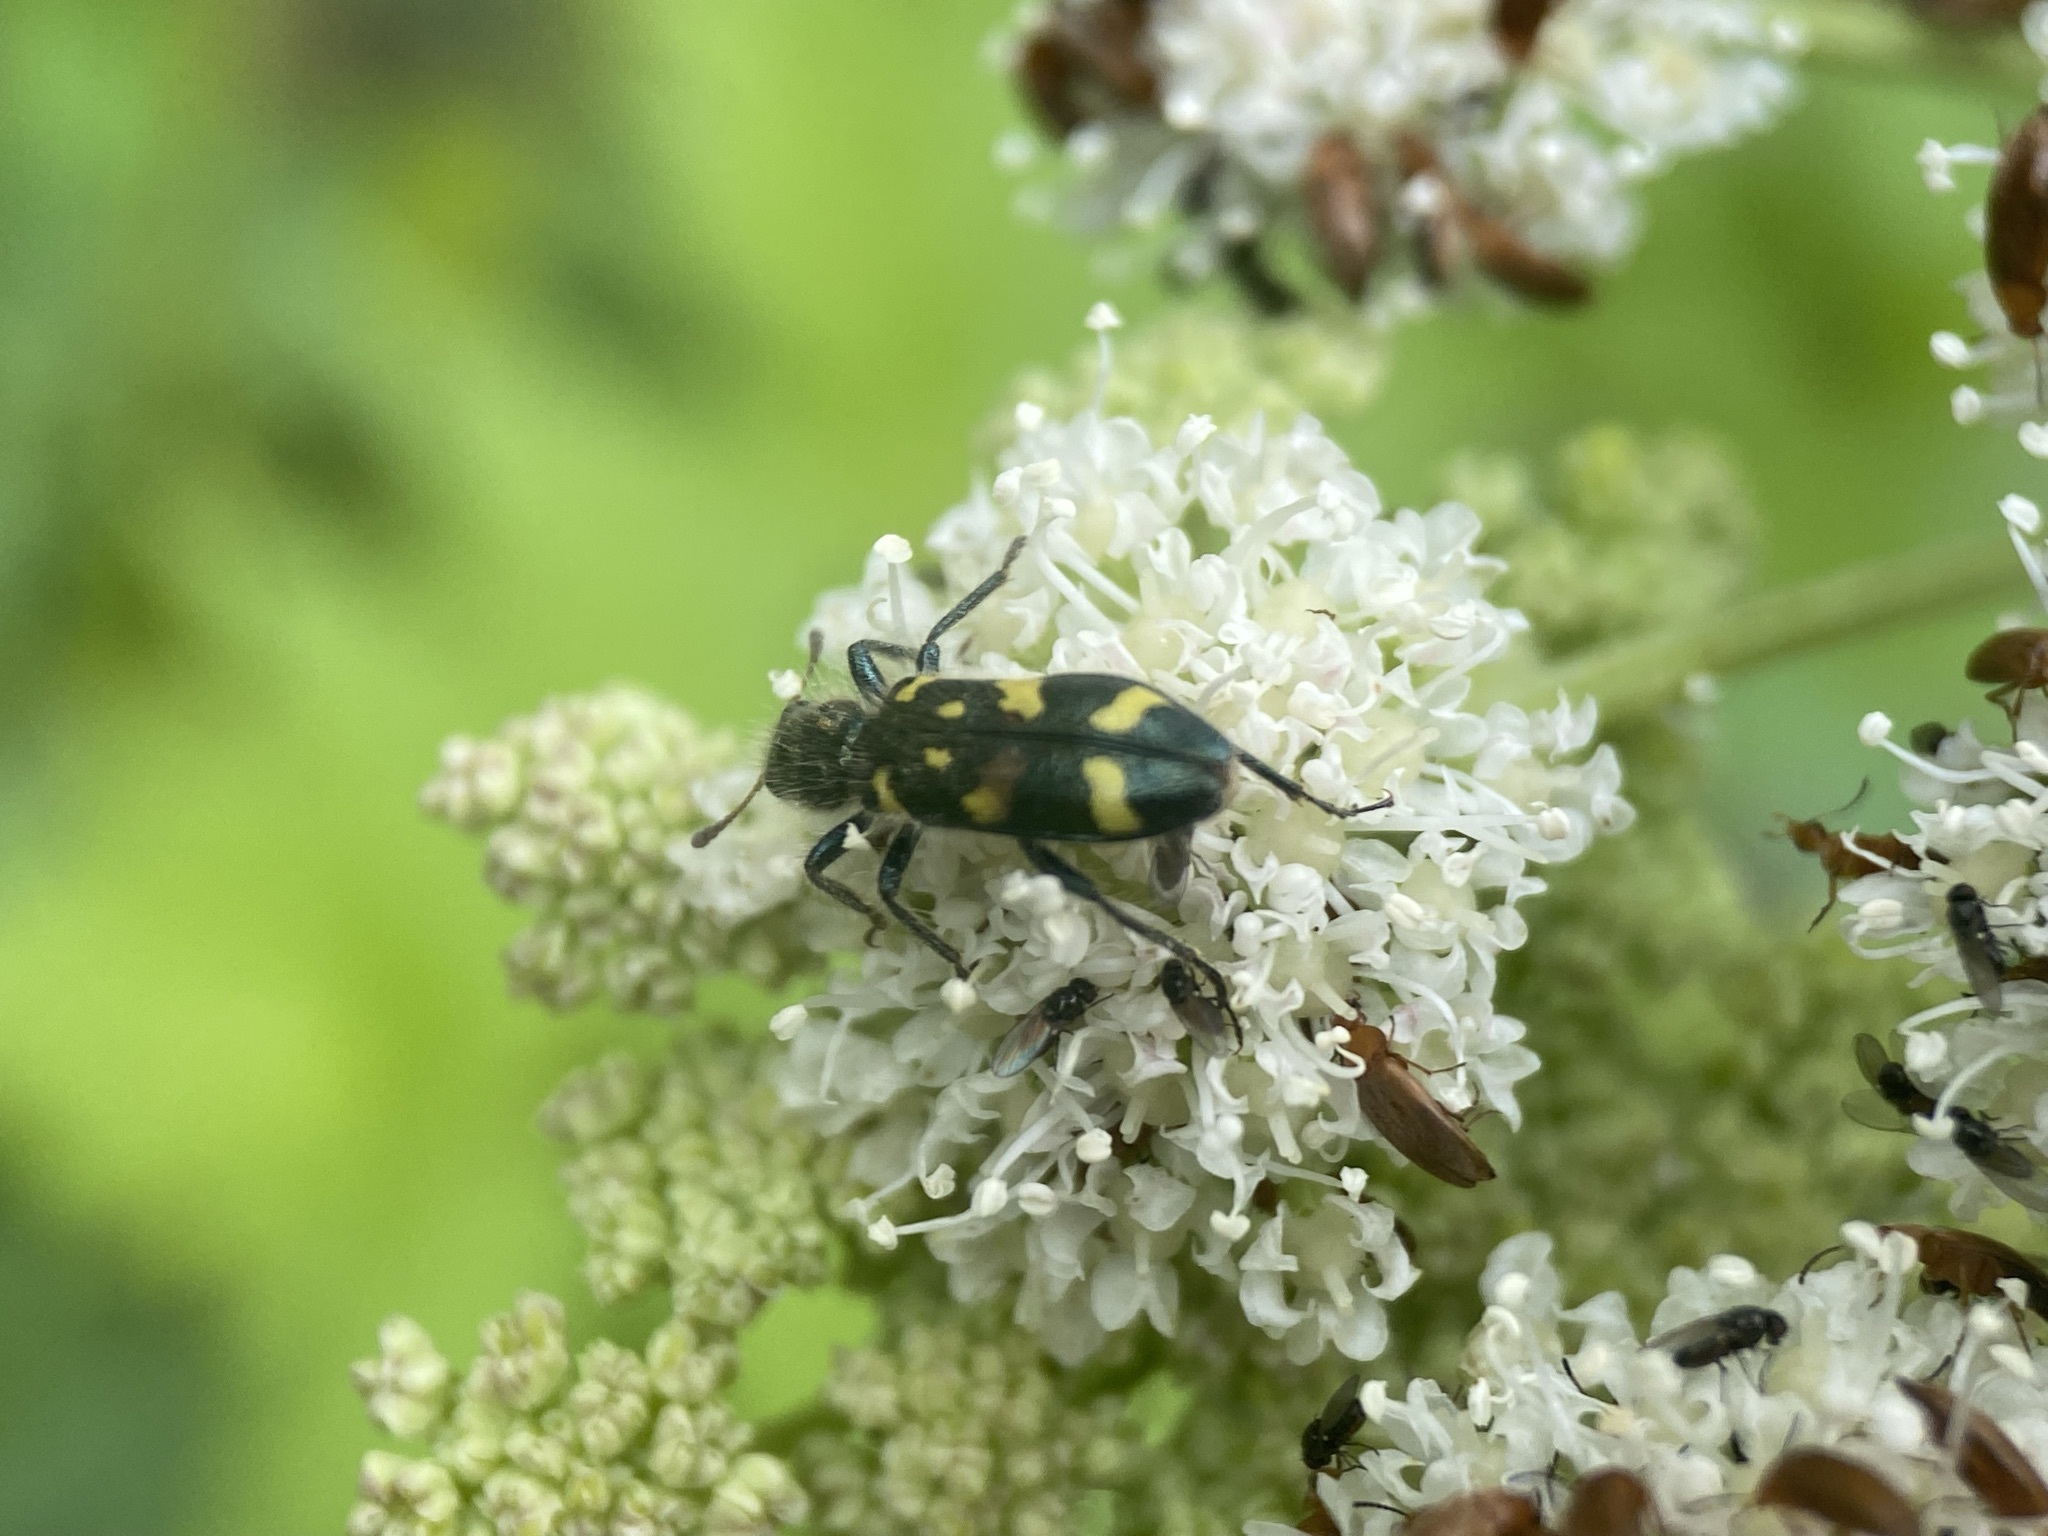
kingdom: Animalia
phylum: Arthropoda
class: Insecta
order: Coleoptera
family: Cleridae
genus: Trichodes
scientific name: Trichodes ornatus
